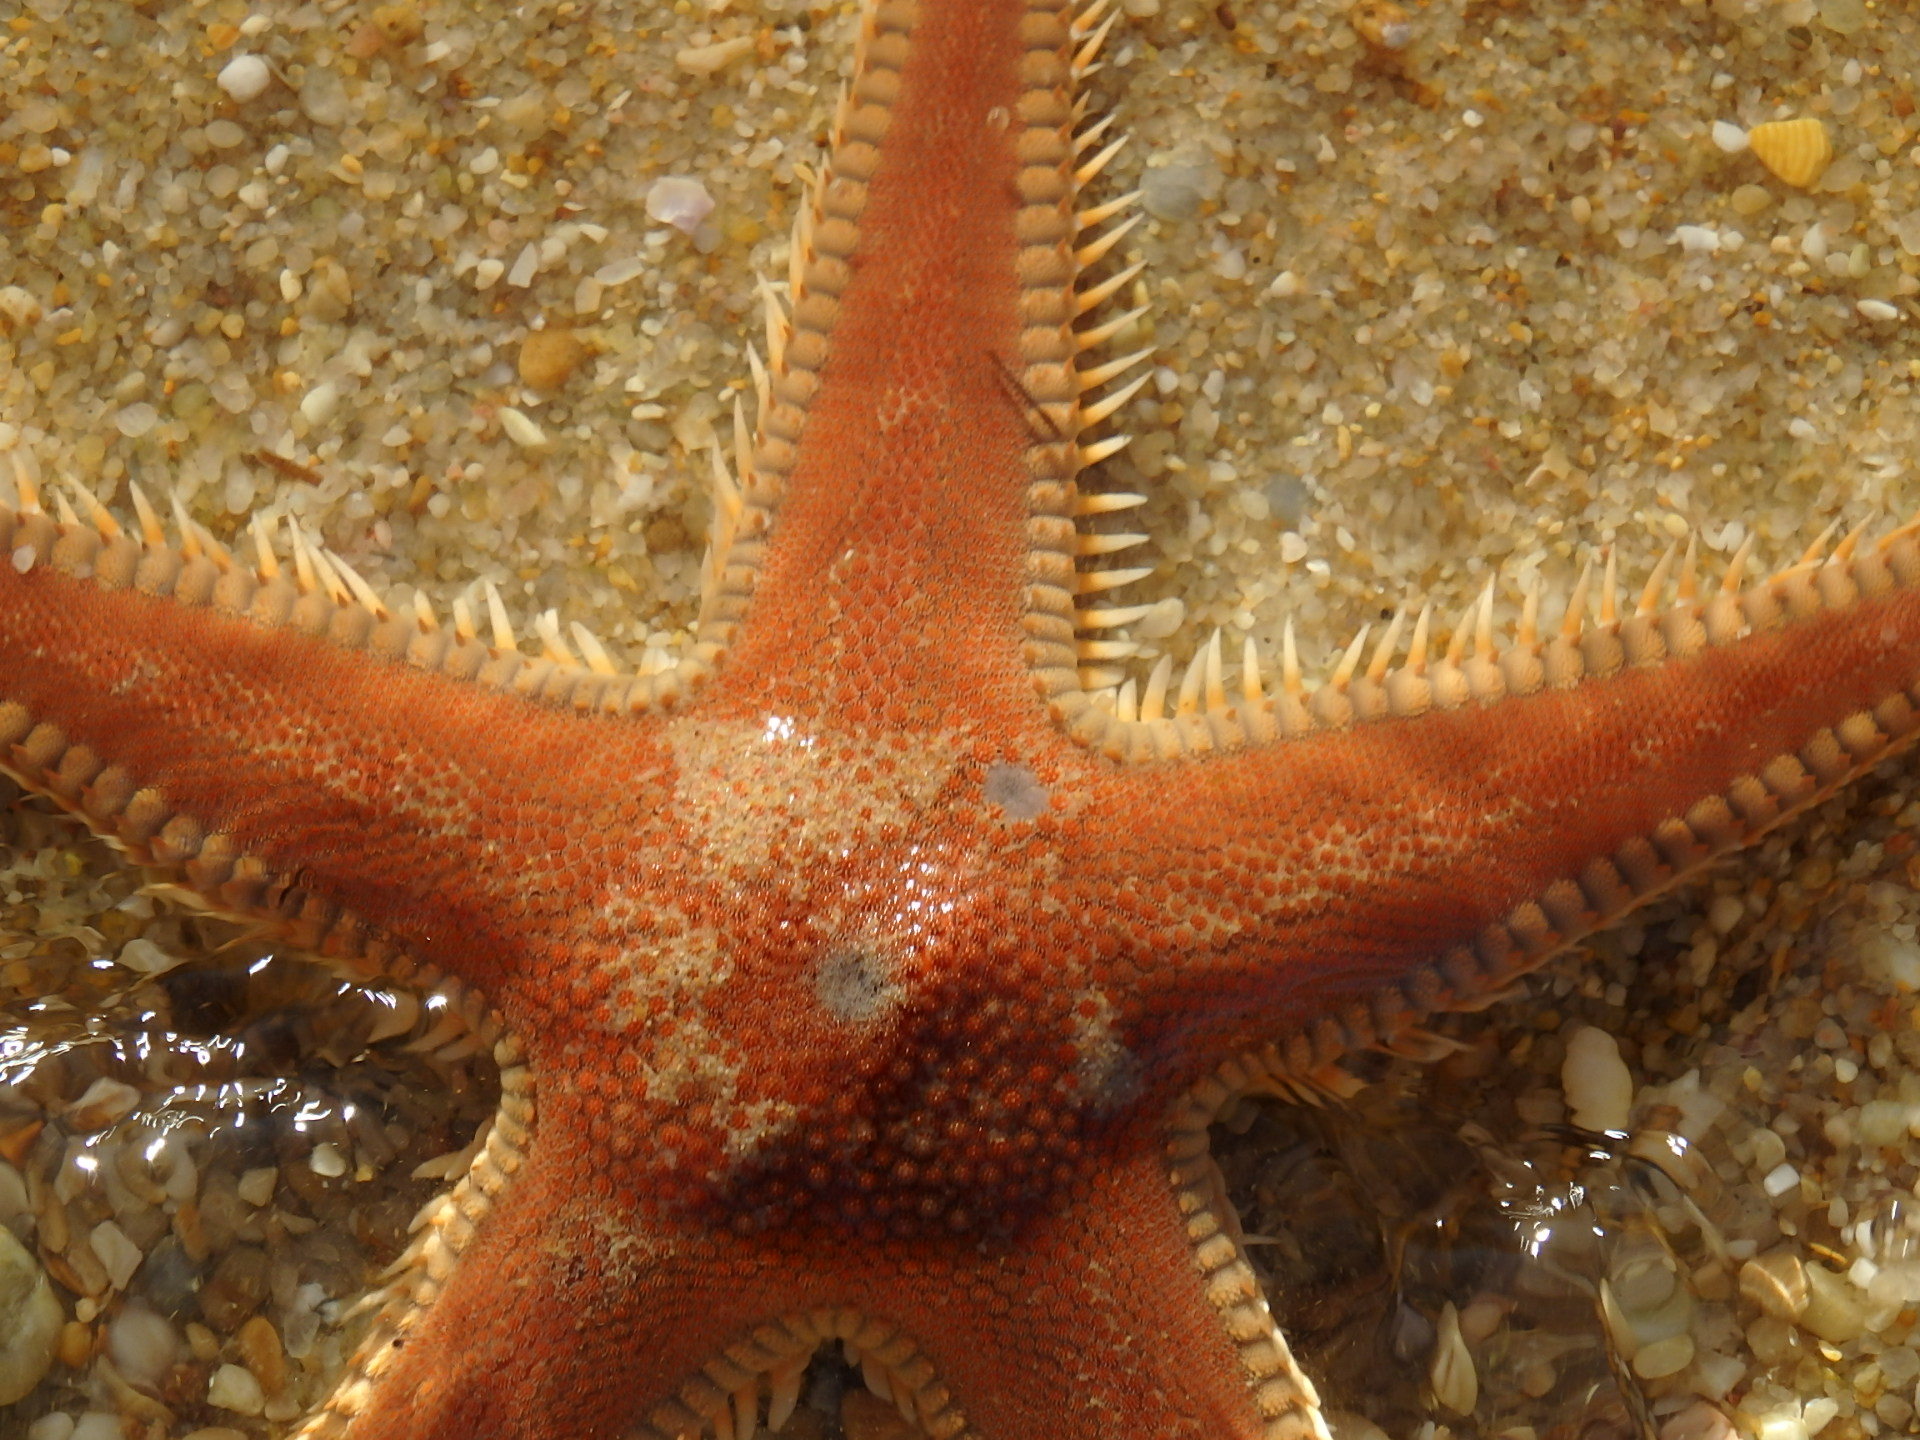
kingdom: Animalia
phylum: Echinodermata
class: Asteroidea
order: Paxillosida
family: Astropectinidae
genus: Astropecten
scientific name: Astropecten aranciacus
